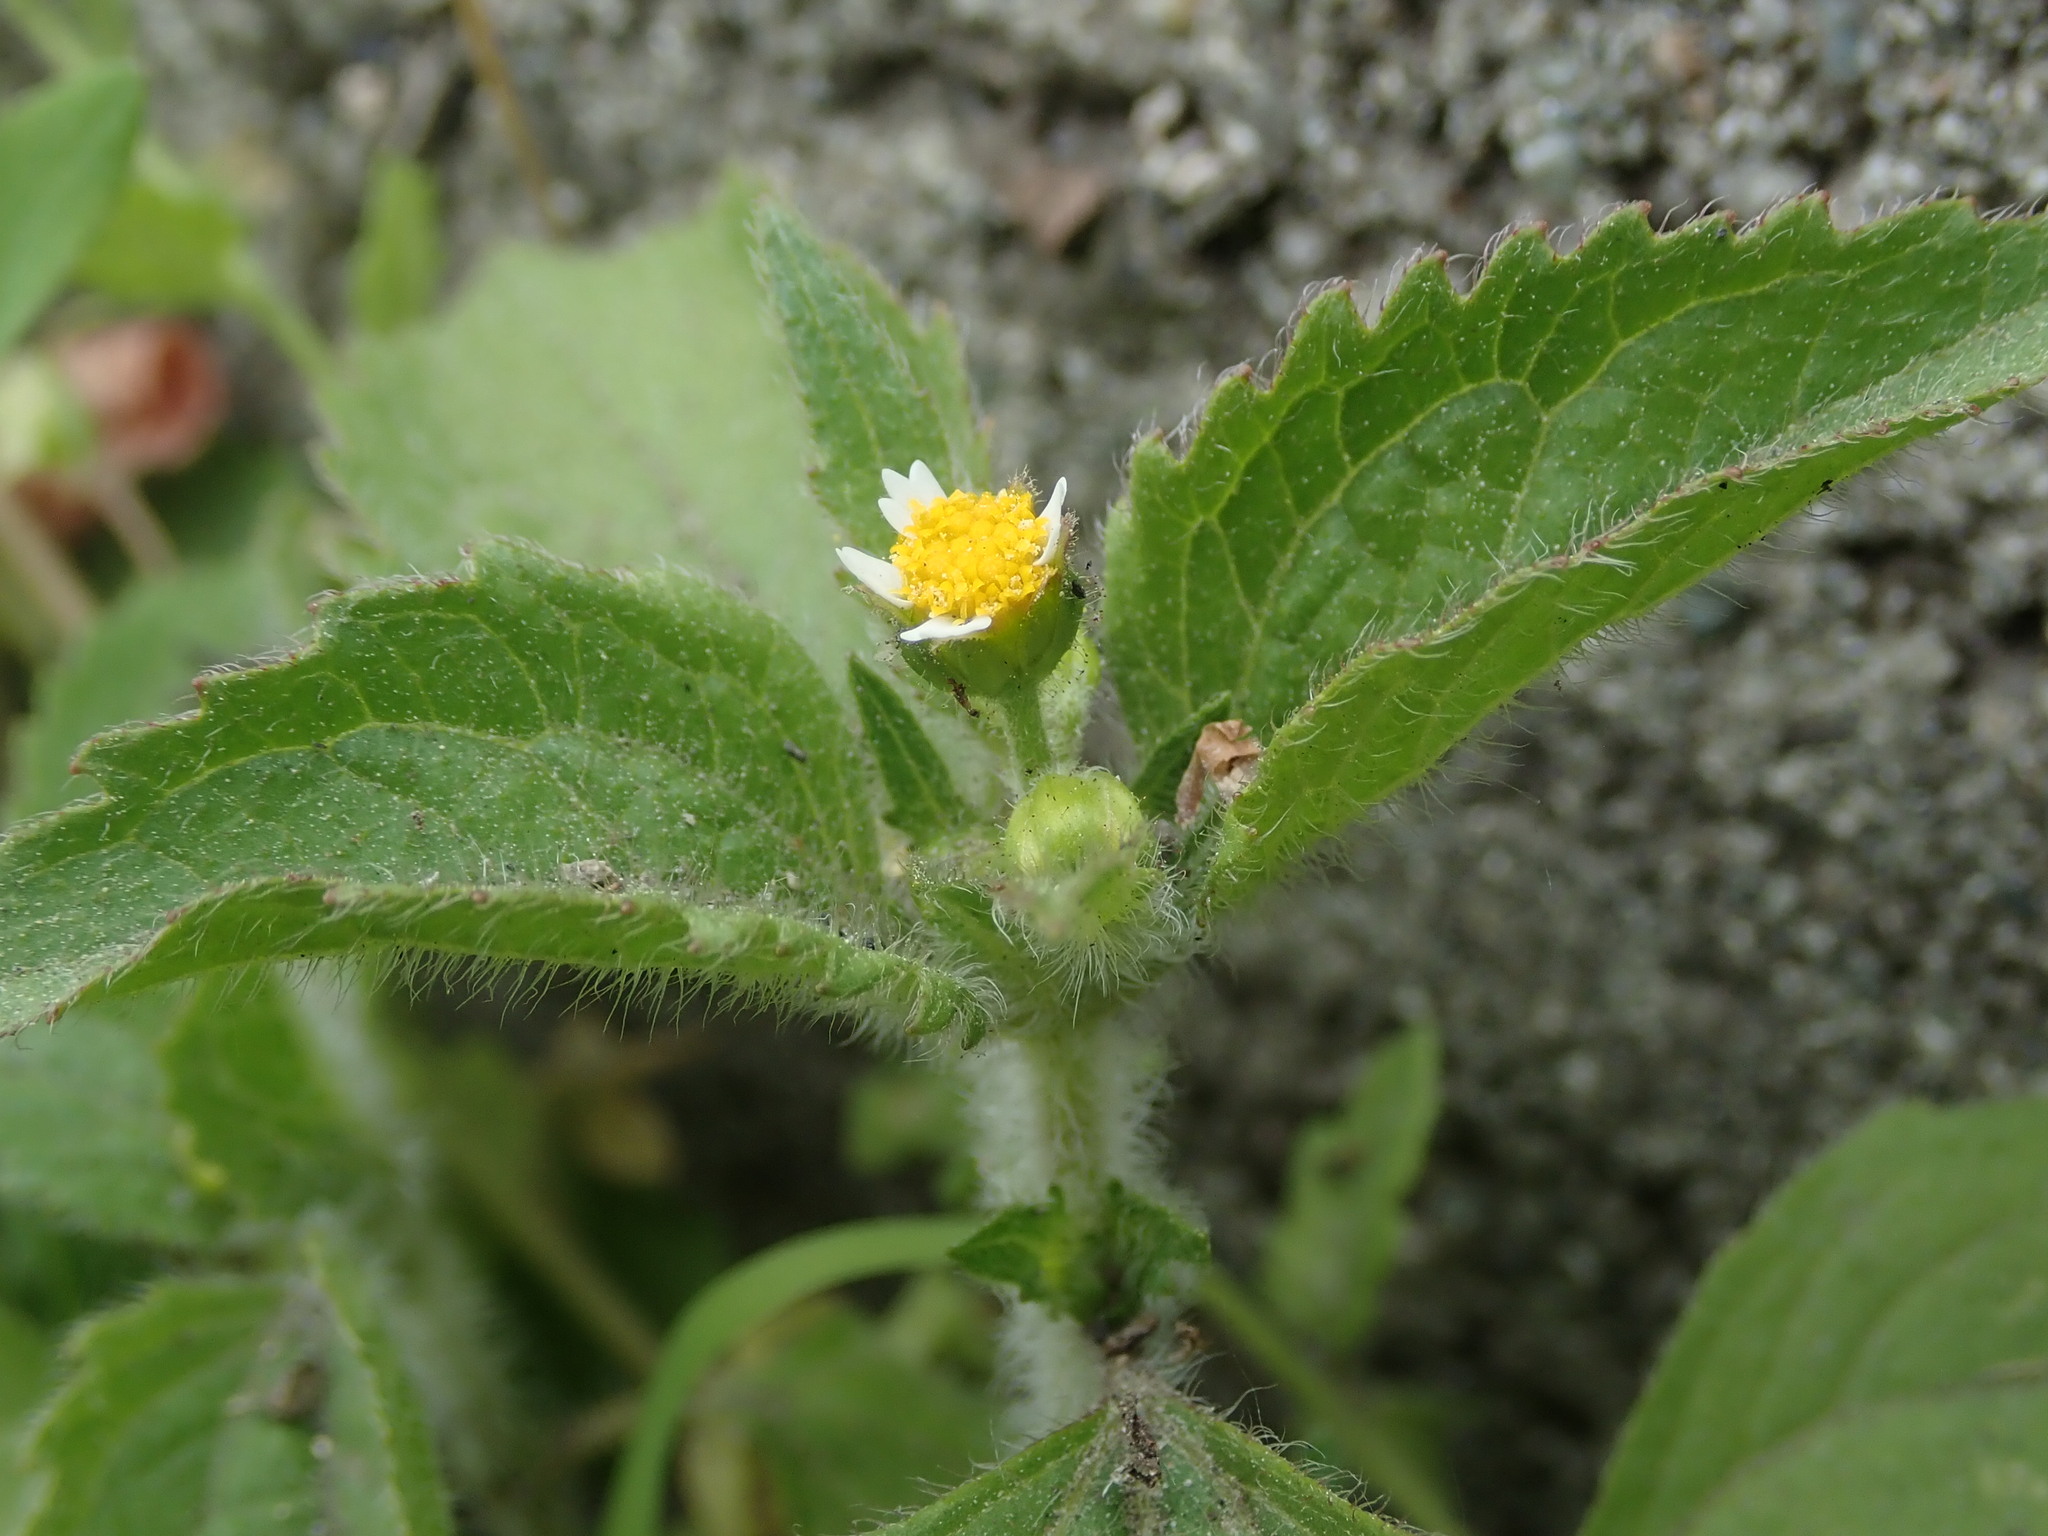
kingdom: Plantae
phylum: Tracheophyta
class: Magnoliopsida
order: Asterales
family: Asteraceae
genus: Galinsoga
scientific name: Galinsoga quadriradiata
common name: Shaggy soldier
